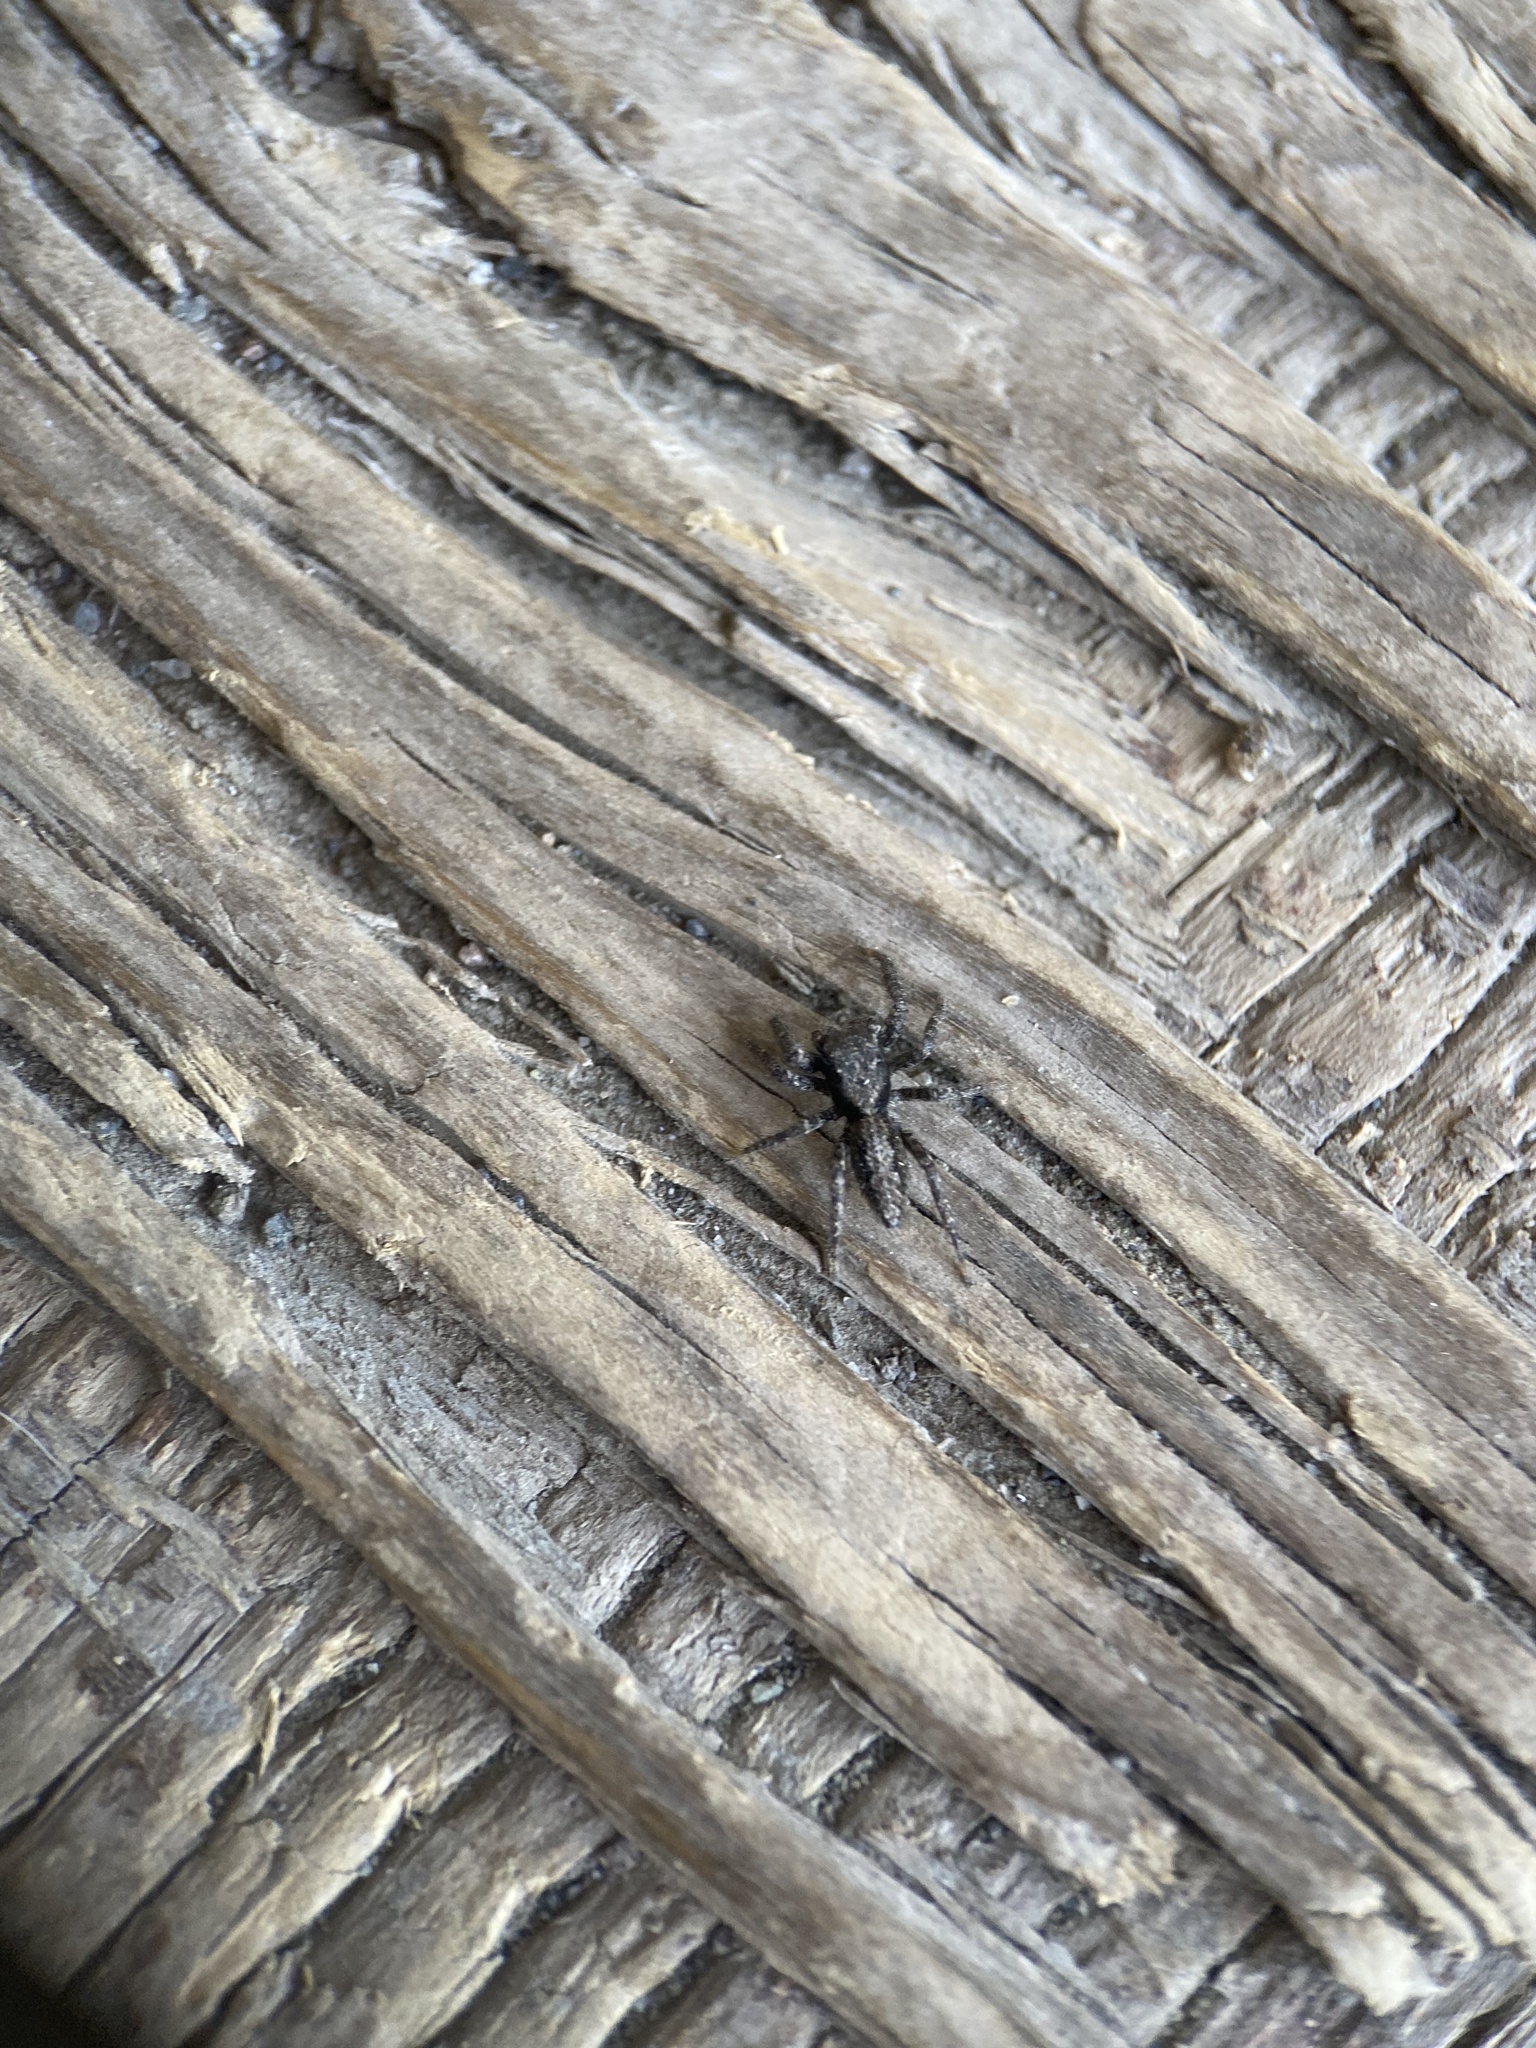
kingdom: Animalia
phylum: Arthropoda
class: Arachnida
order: Araneae
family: Salticidae
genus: Platycryptus
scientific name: Platycryptus californicus
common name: Jumping spiders
